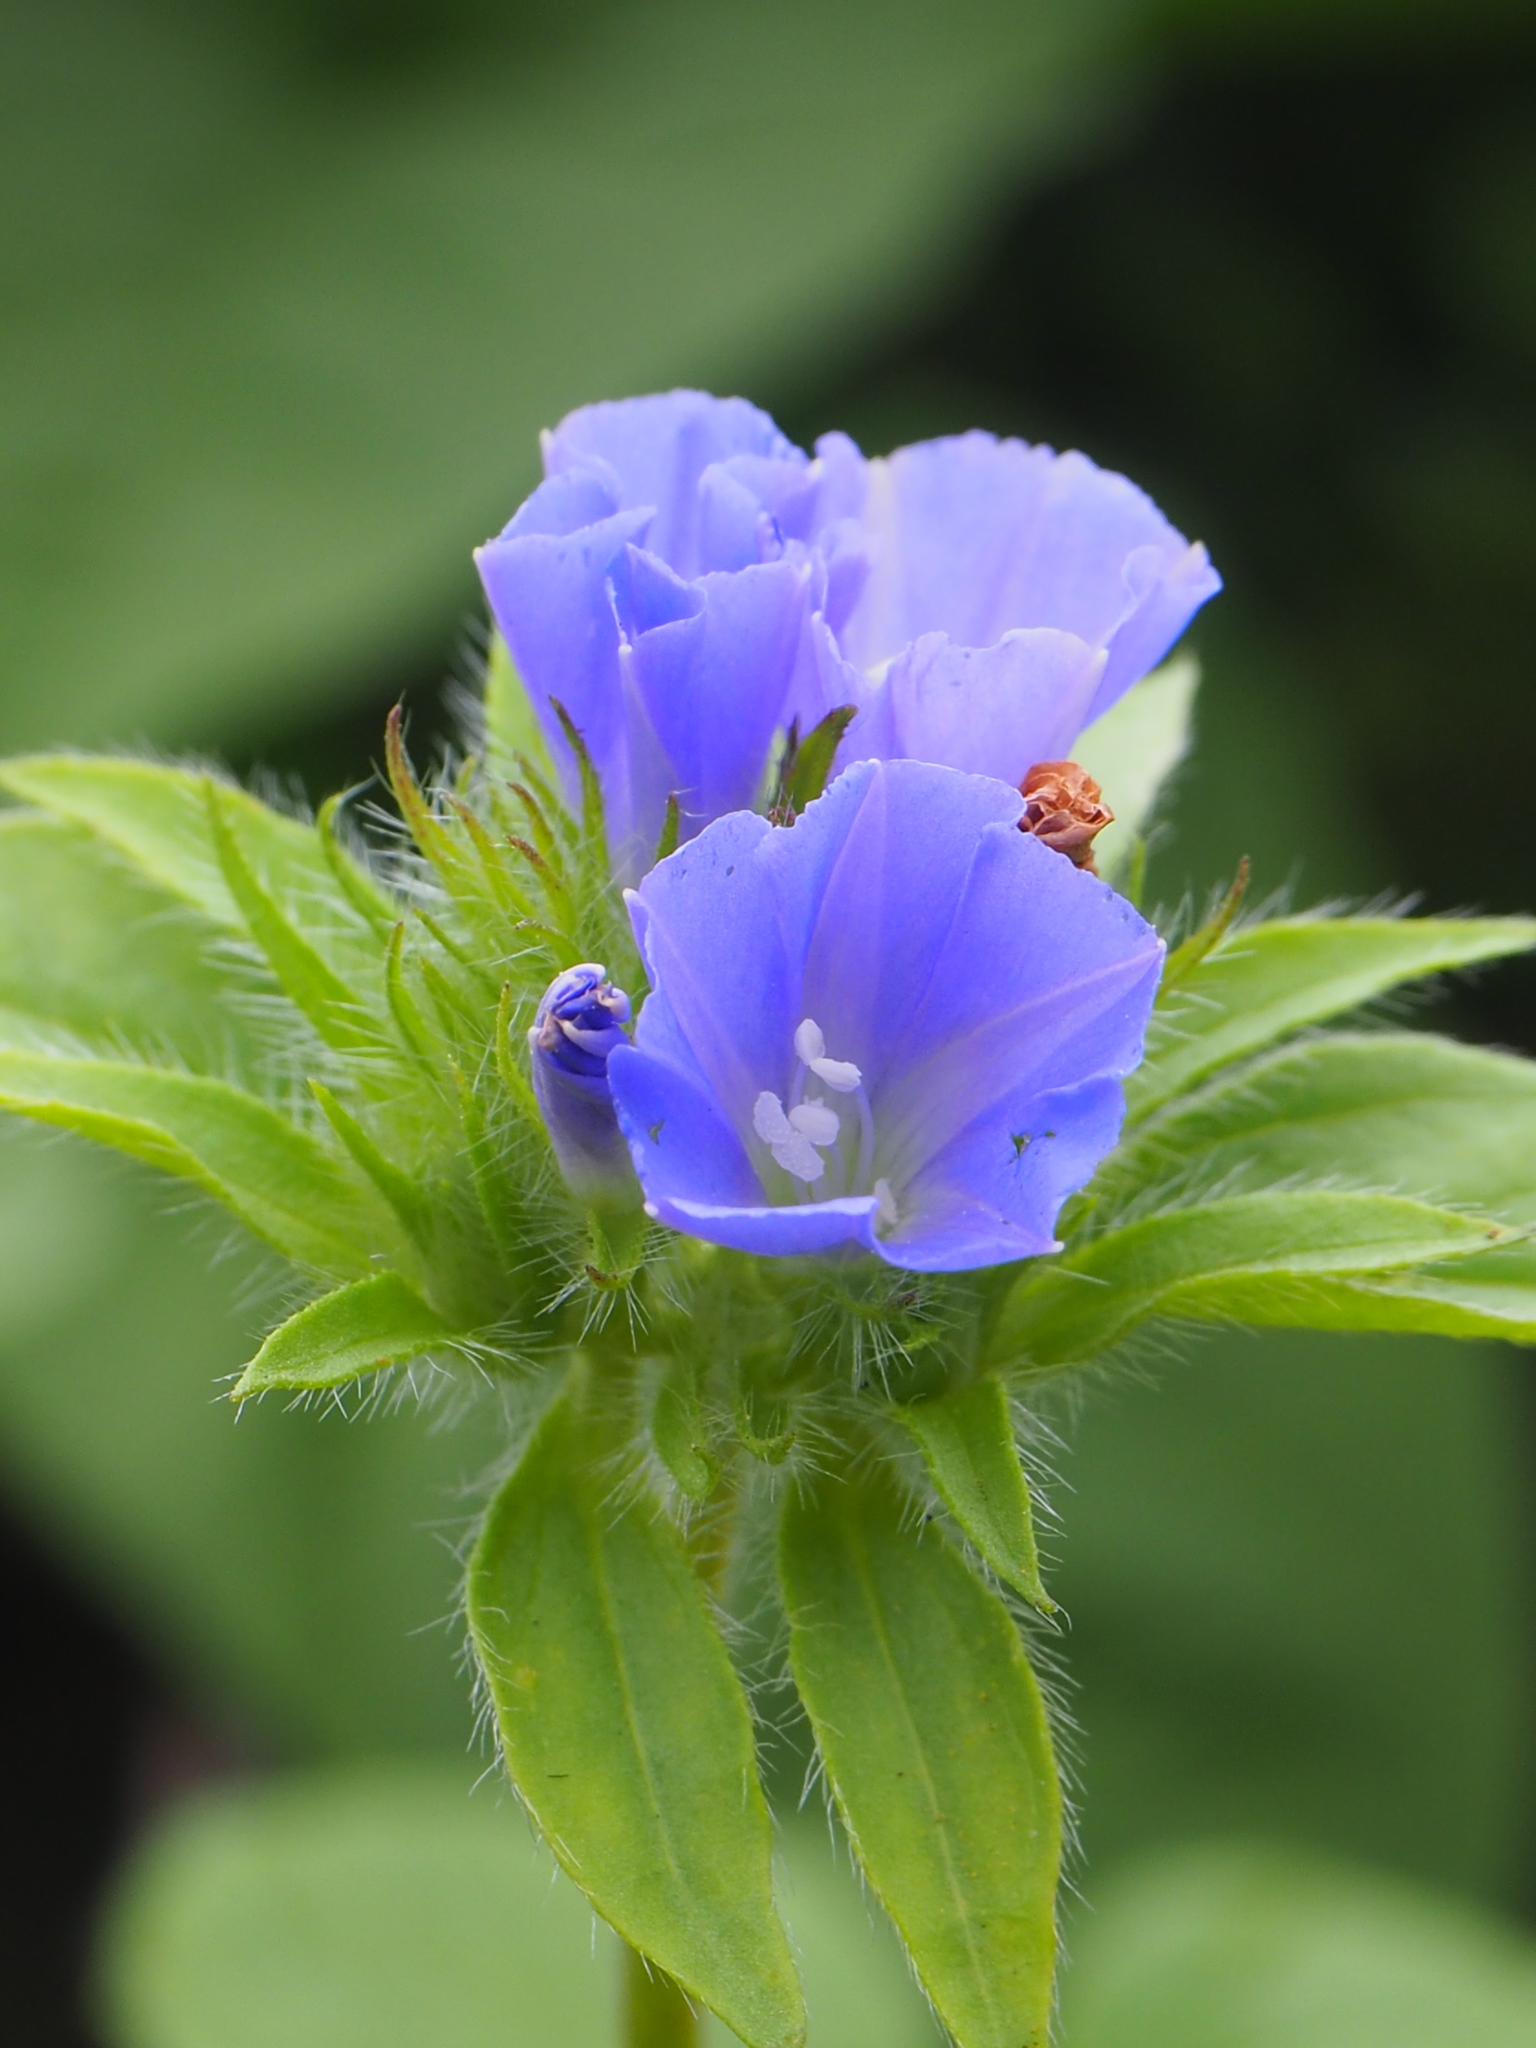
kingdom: Plantae
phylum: Tracheophyta
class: Magnoliopsida
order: Solanales
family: Convolvulaceae
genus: Jacquemontia
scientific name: Jacquemontia tamnifolia
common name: Hairy clustervine
